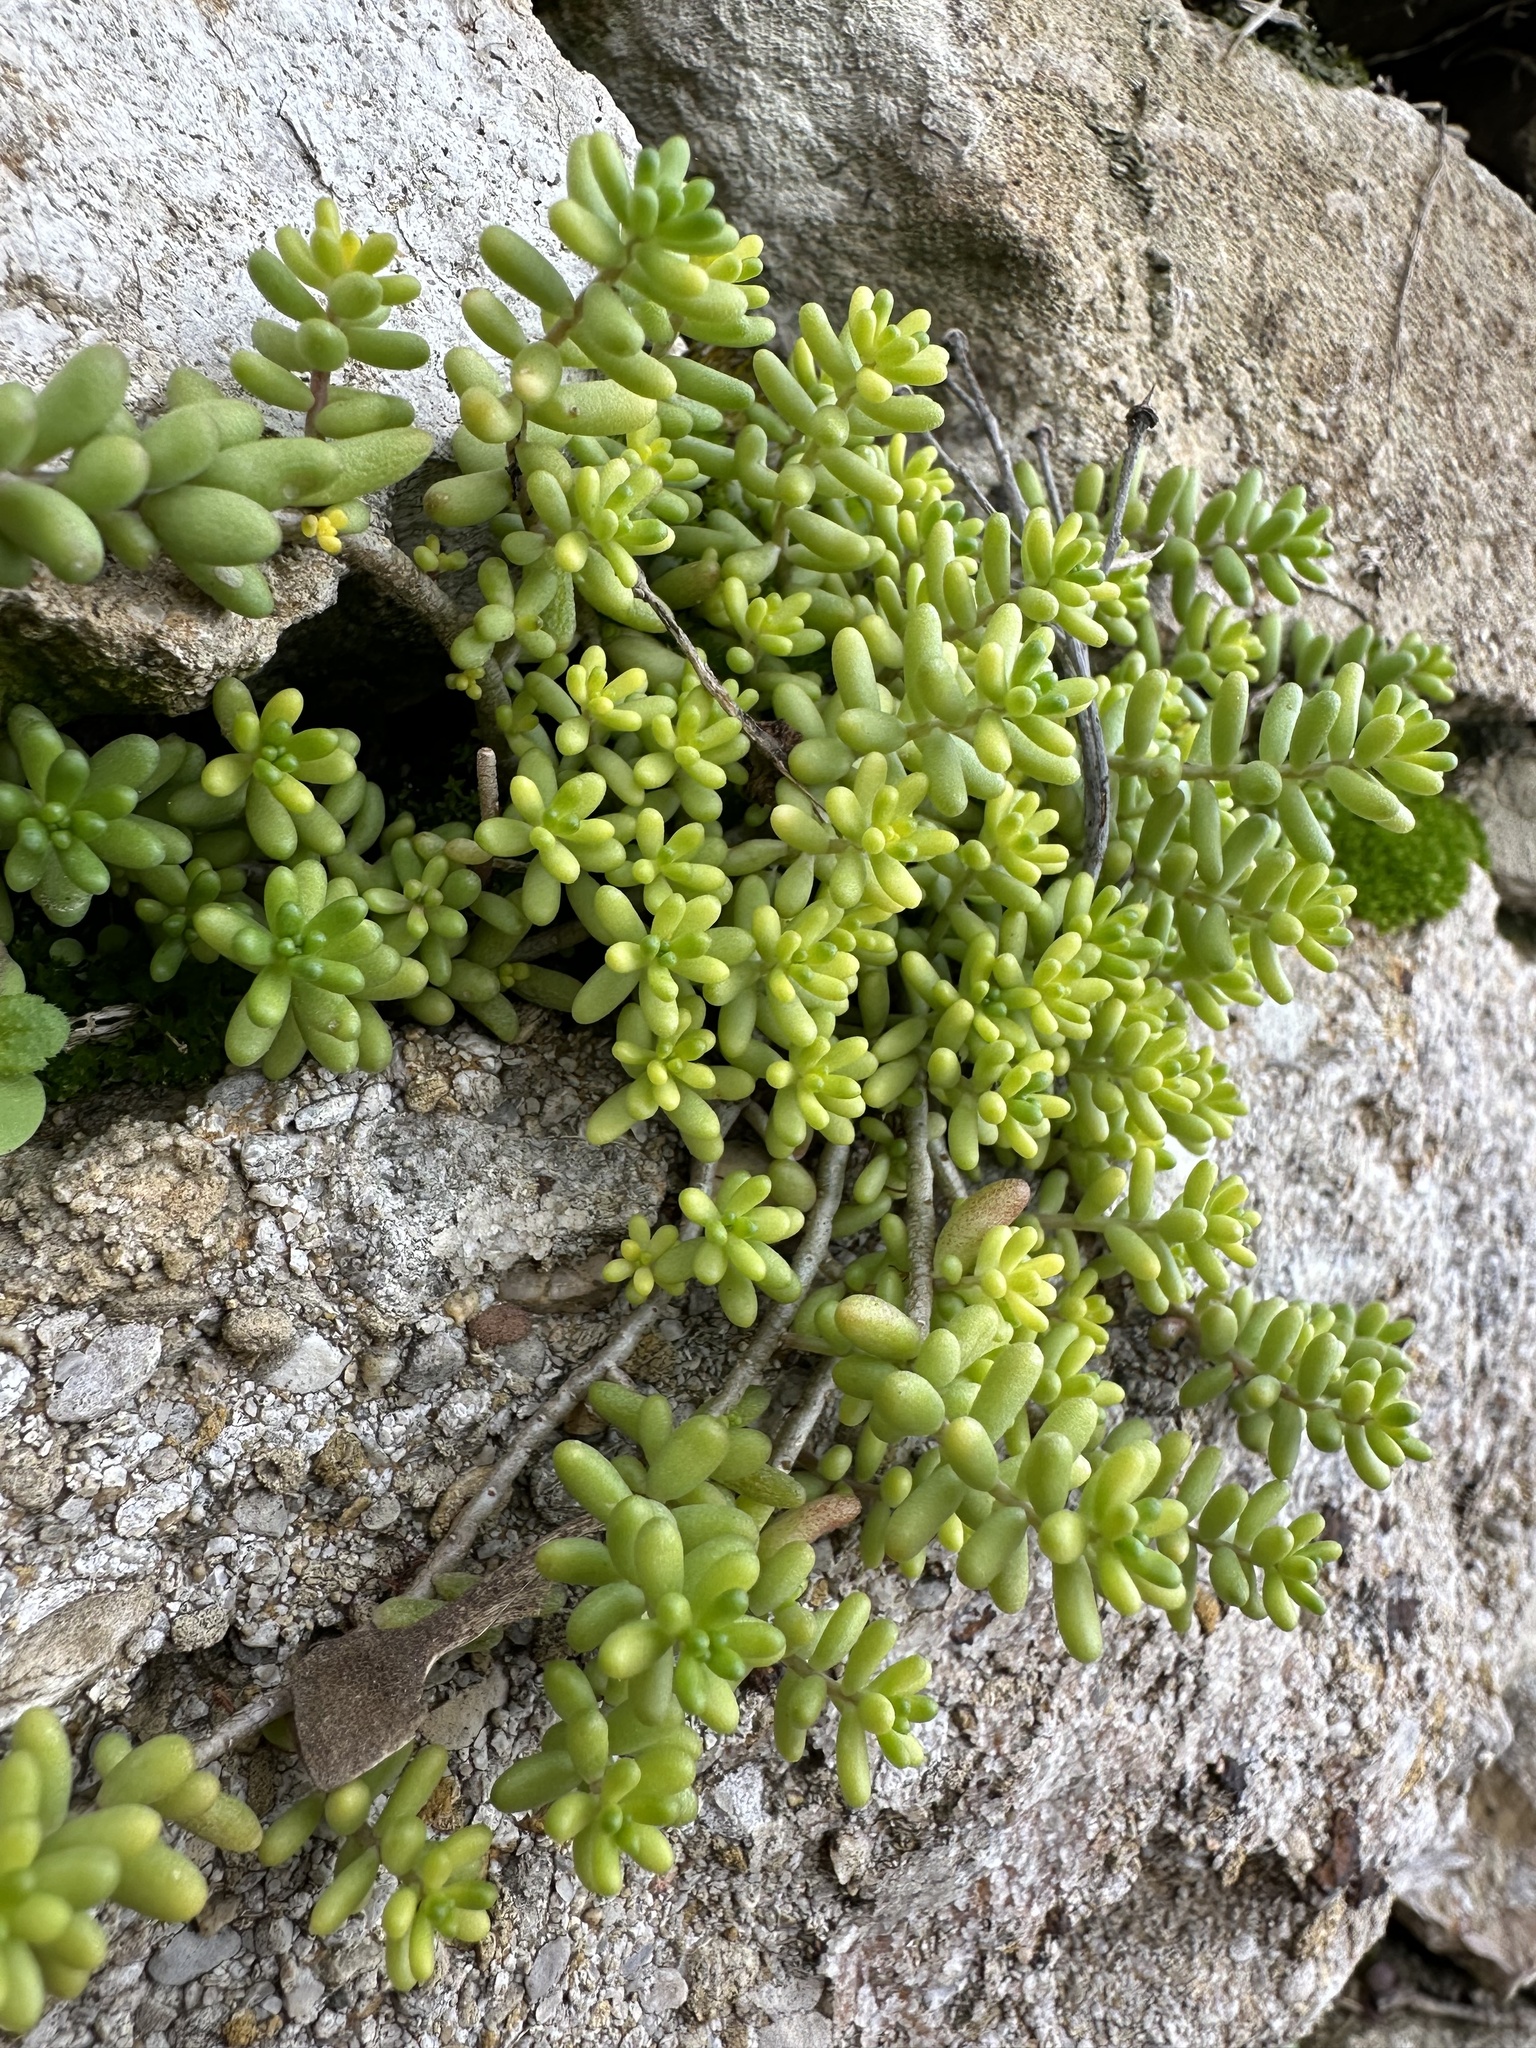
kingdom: Plantae
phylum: Tracheophyta
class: Magnoliopsida
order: Saxifragales
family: Crassulaceae
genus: Sedum
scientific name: Sedum album
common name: White stonecrop
